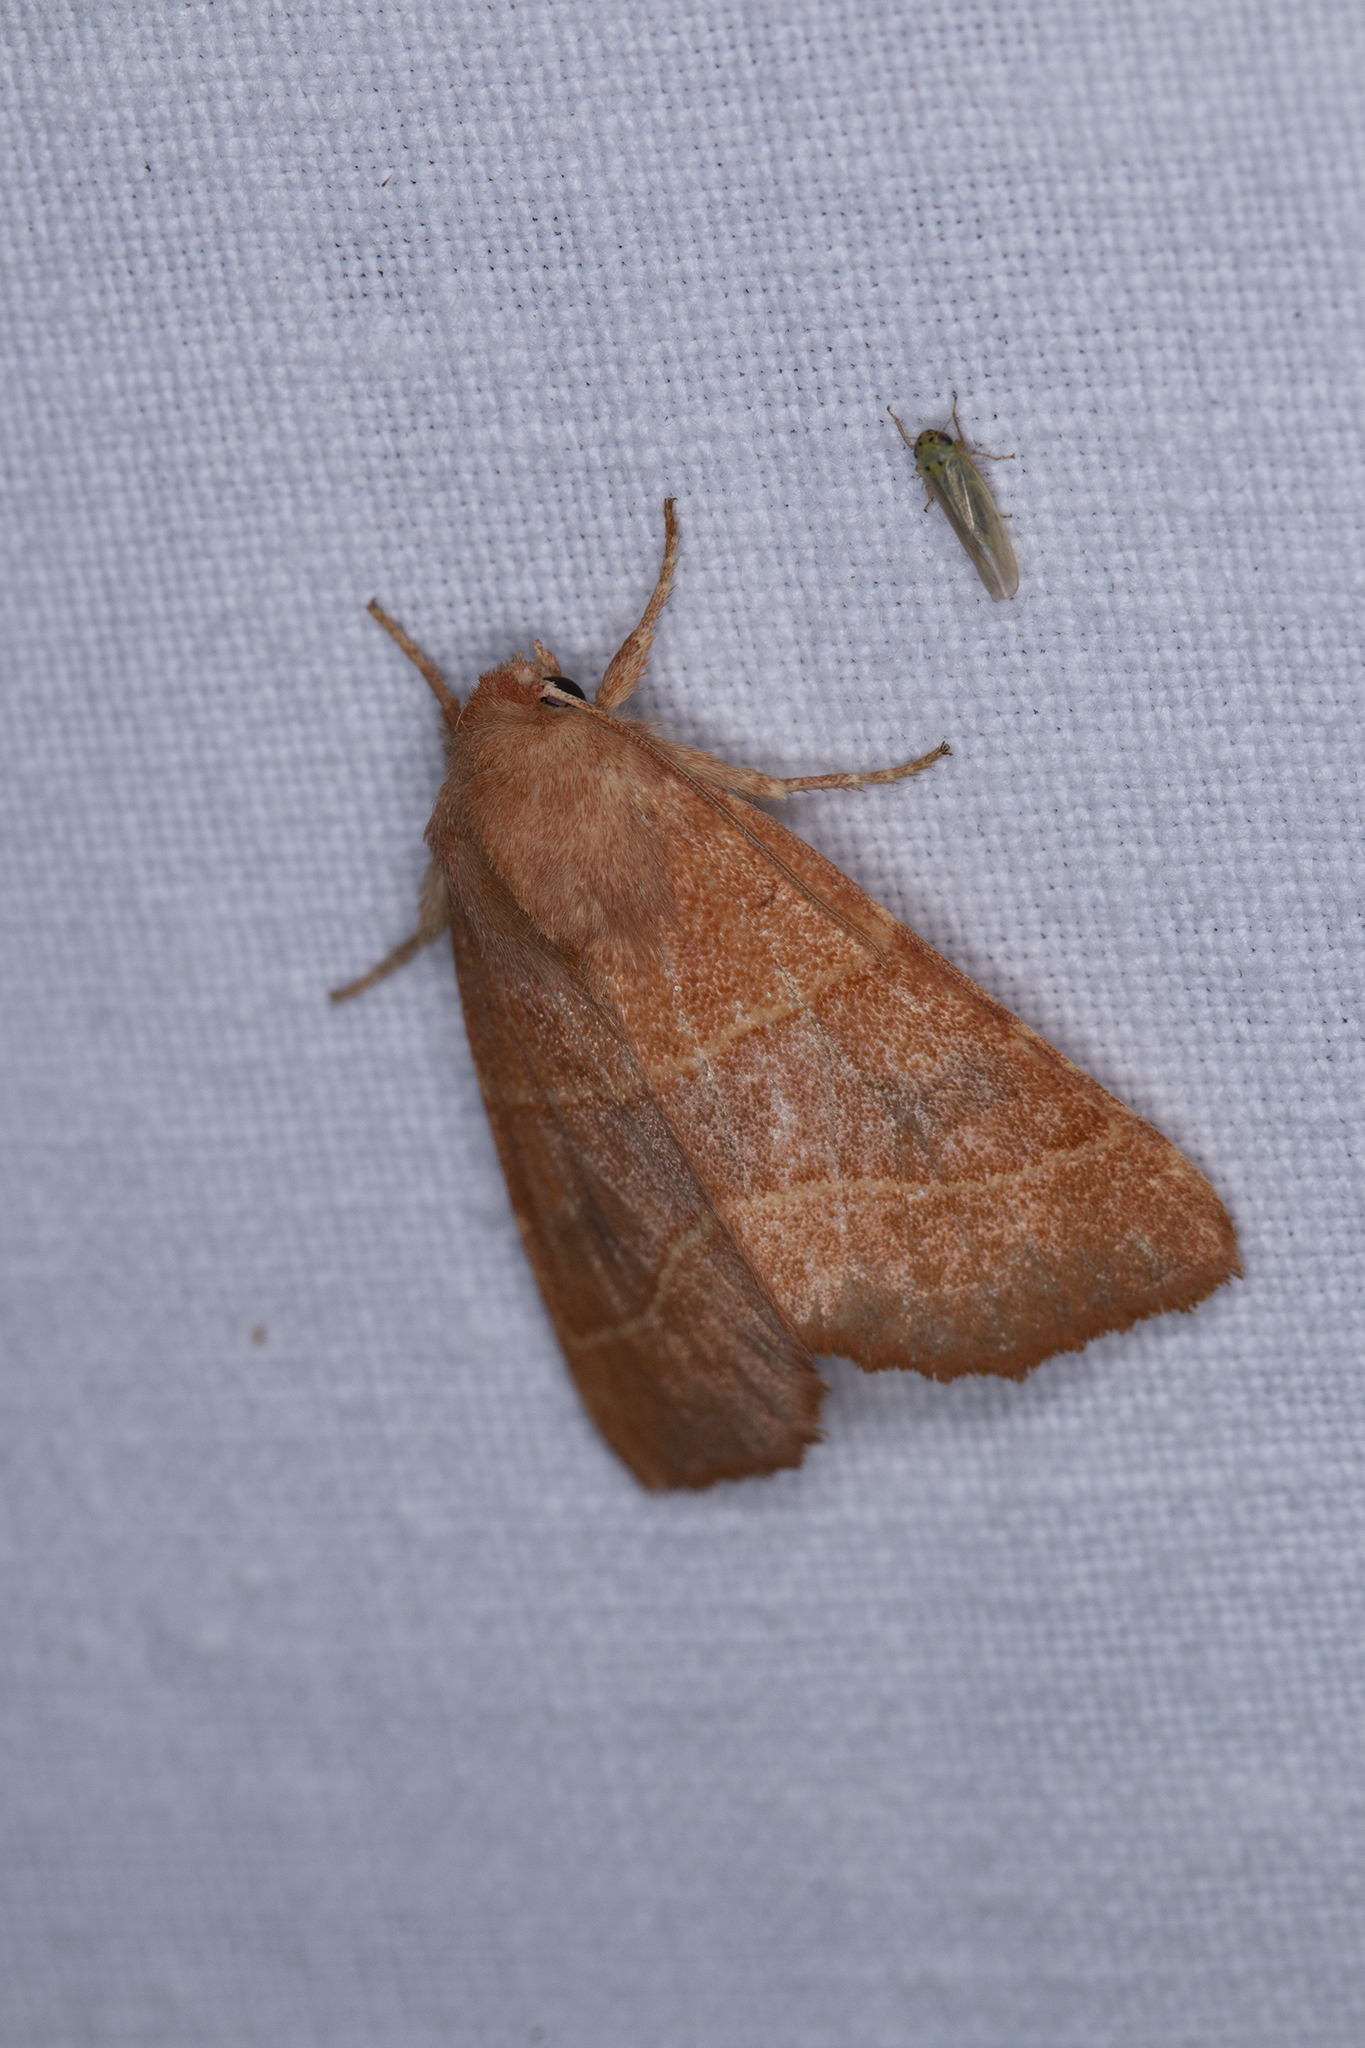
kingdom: Animalia
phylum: Arthropoda
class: Insecta
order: Lepidoptera
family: Noctuidae
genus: Atethmia
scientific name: Atethmia centrago
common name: Centre-barred sallow
